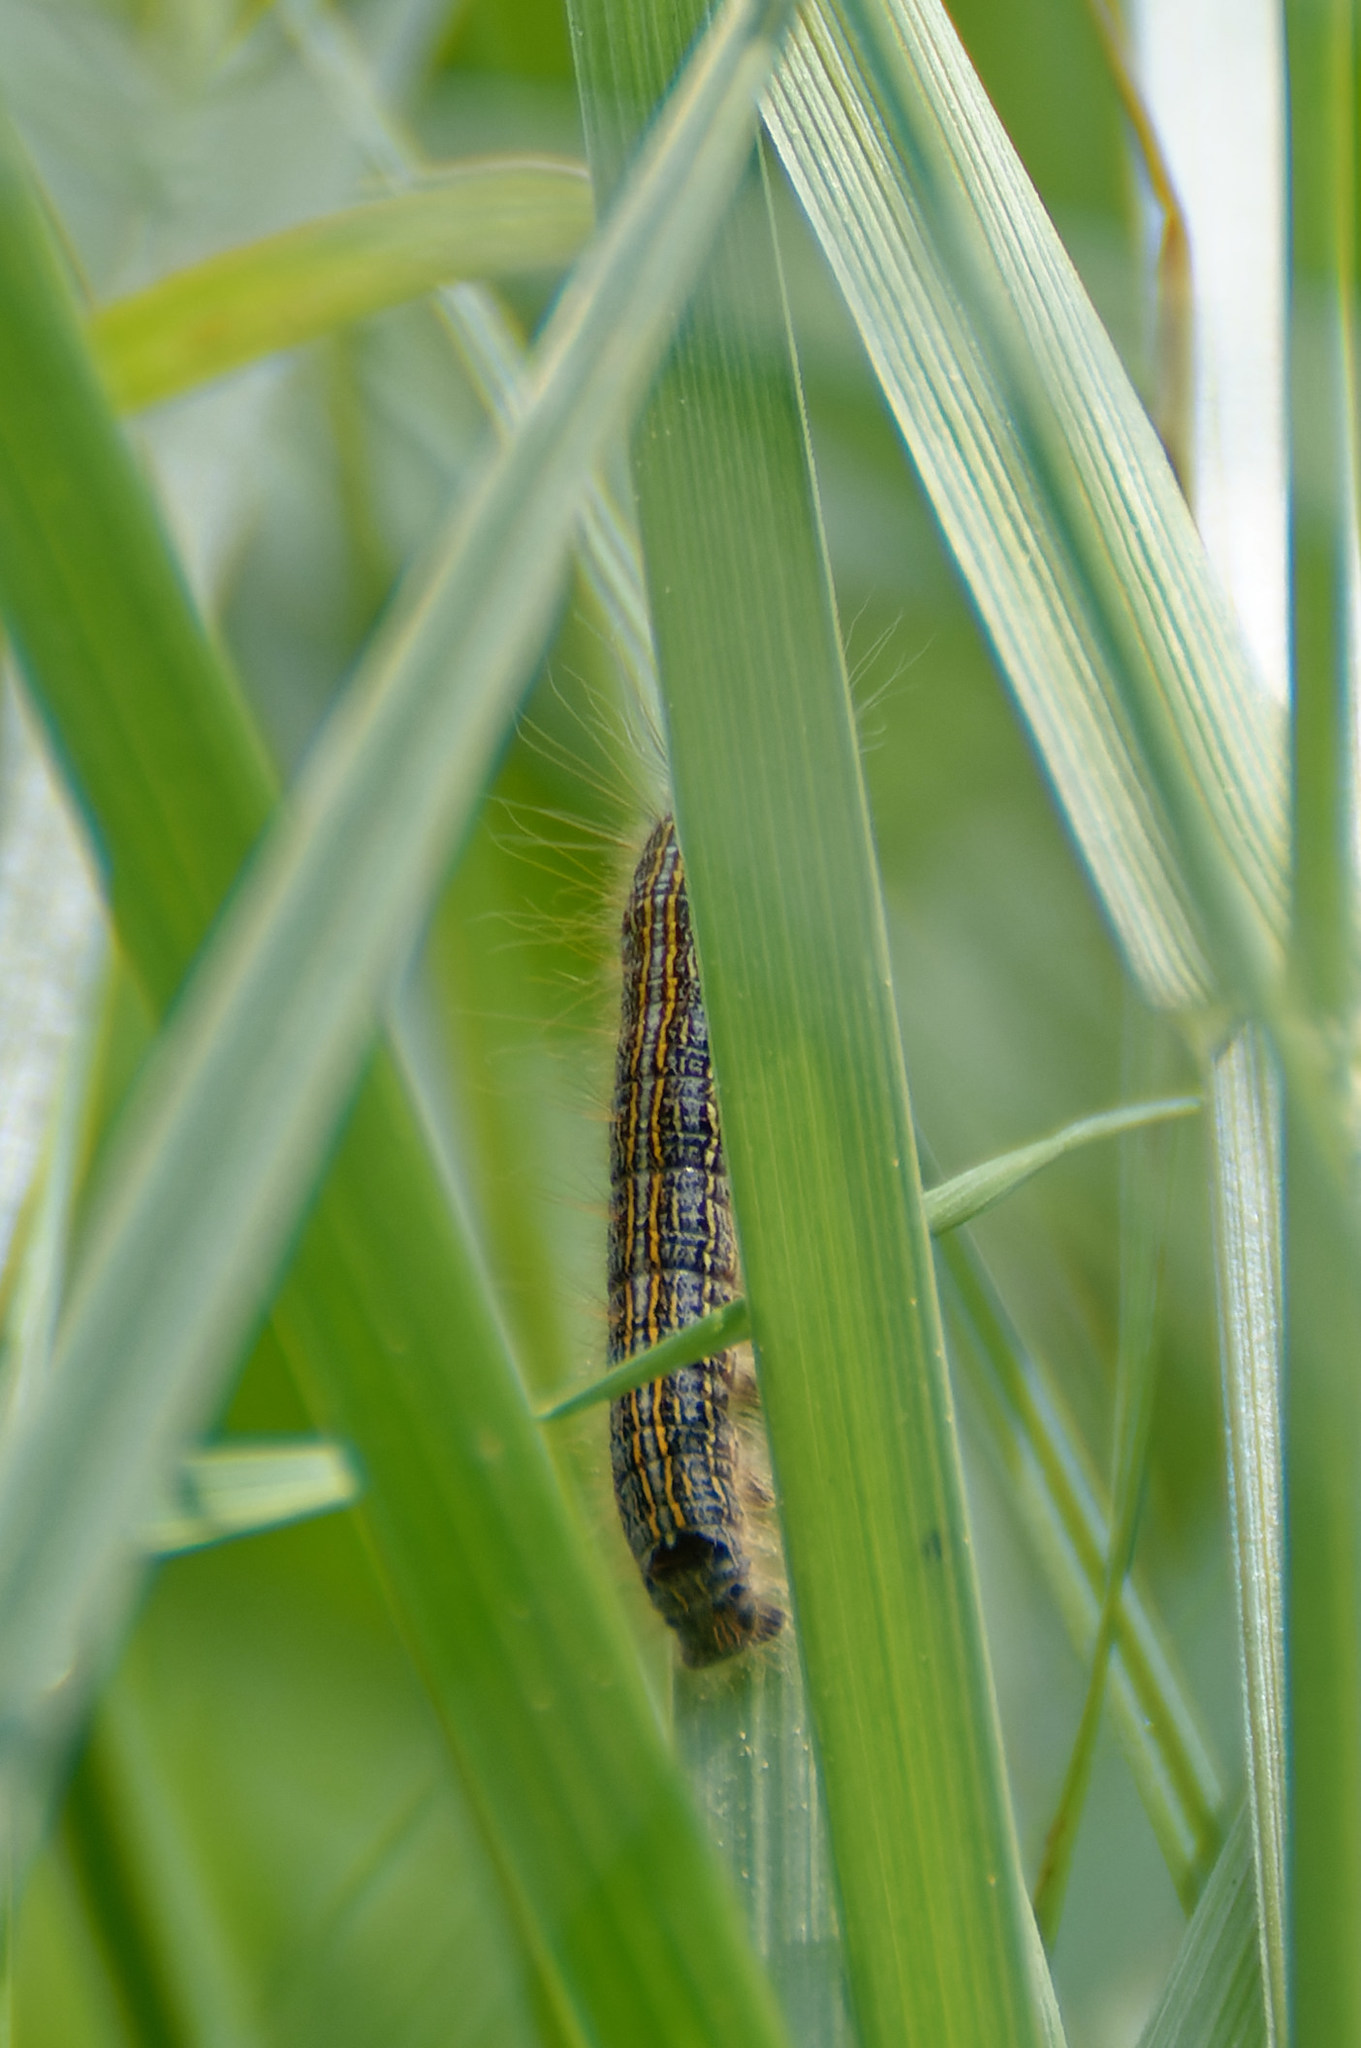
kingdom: Animalia
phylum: Arthropoda
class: Insecta
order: Lepidoptera
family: Lasiocampidae
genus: Malacosoma
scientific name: Malacosoma neustria
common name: The lackey
